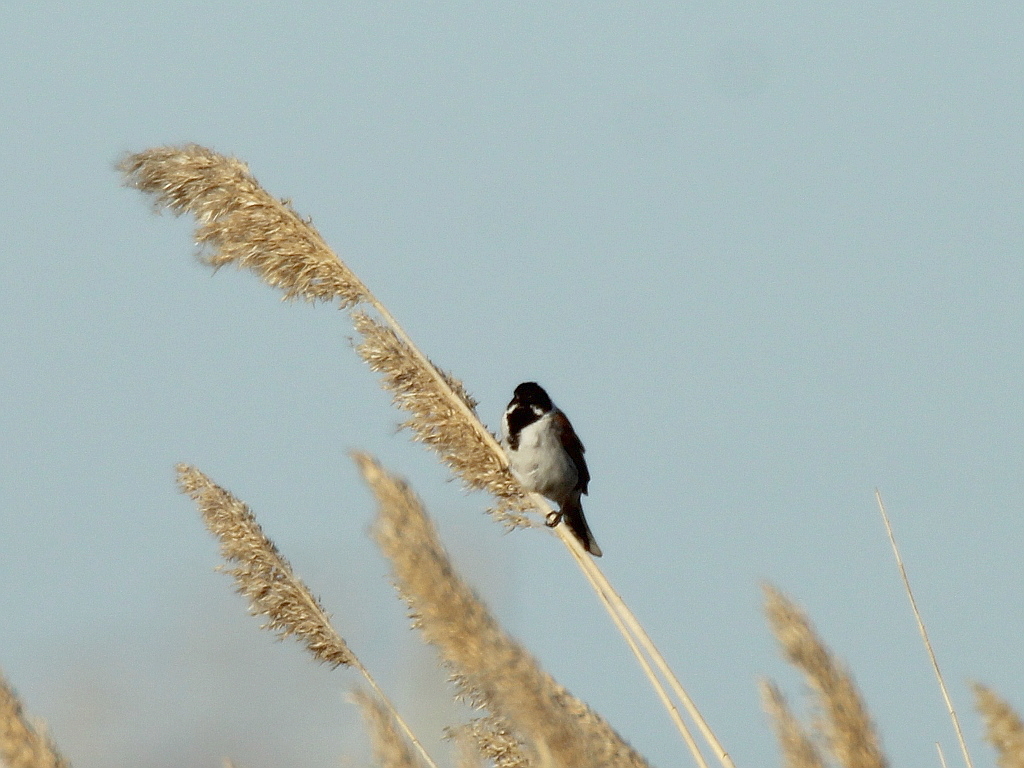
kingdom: Animalia
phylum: Chordata
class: Aves
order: Passeriformes
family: Emberizidae
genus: Emberiza
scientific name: Emberiza schoeniclus
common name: Reed bunting
